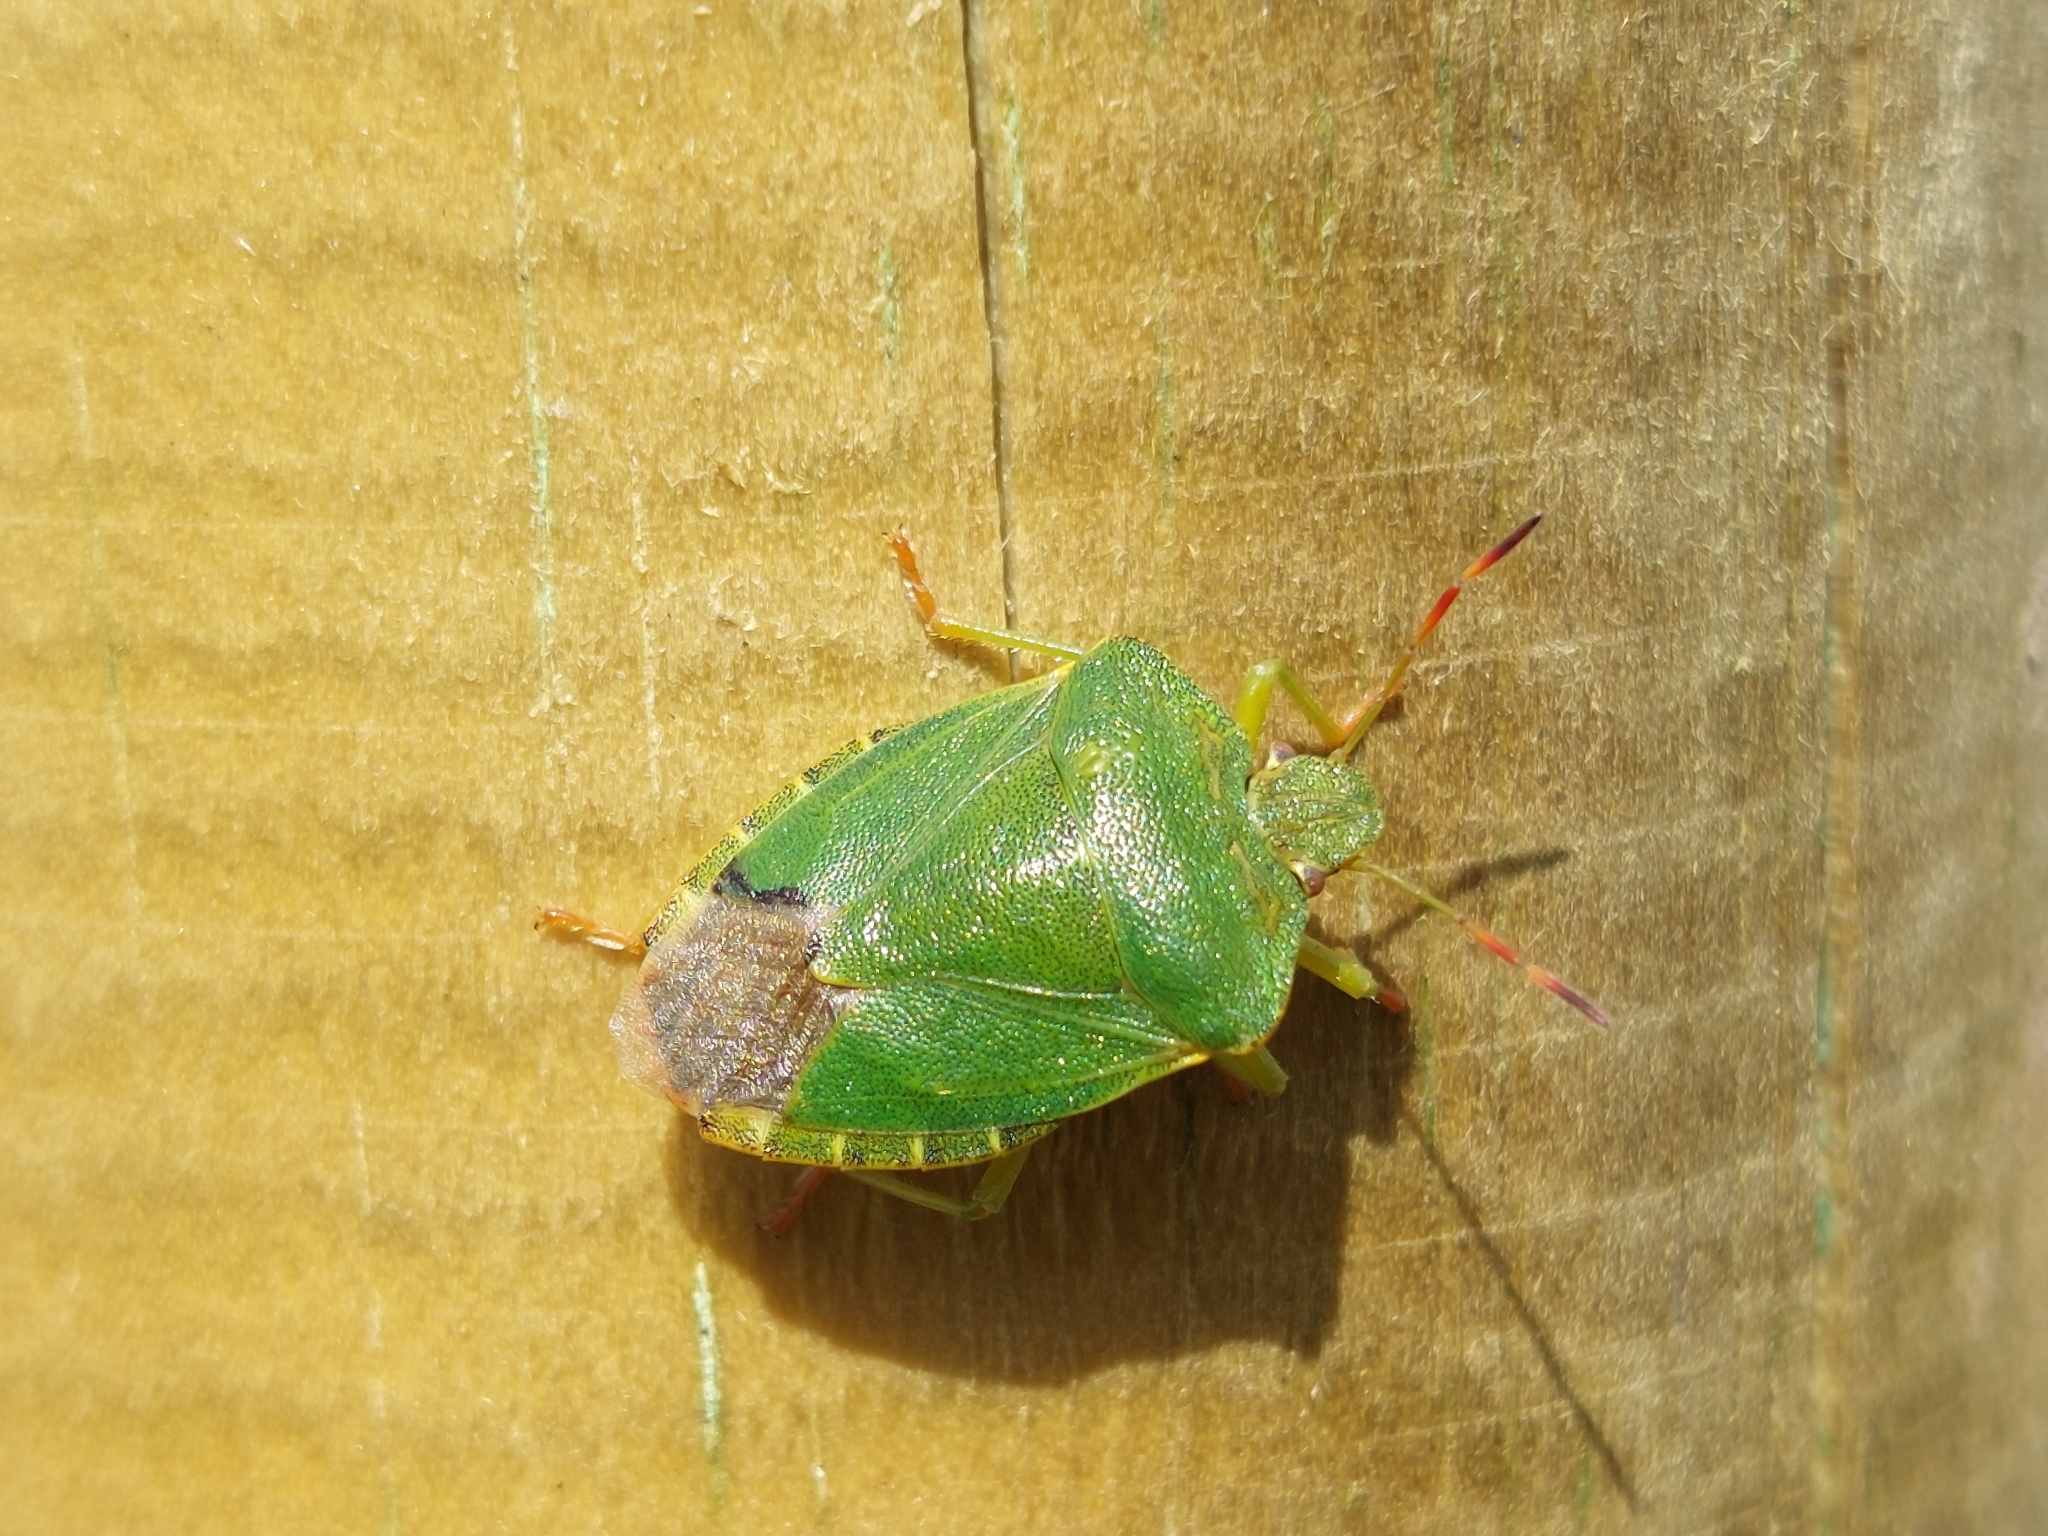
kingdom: Animalia
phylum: Arthropoda
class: Insecta
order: Hemiptera
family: Pentatomidae
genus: Palomena
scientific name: Palomena prasina
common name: Green shieldbug
